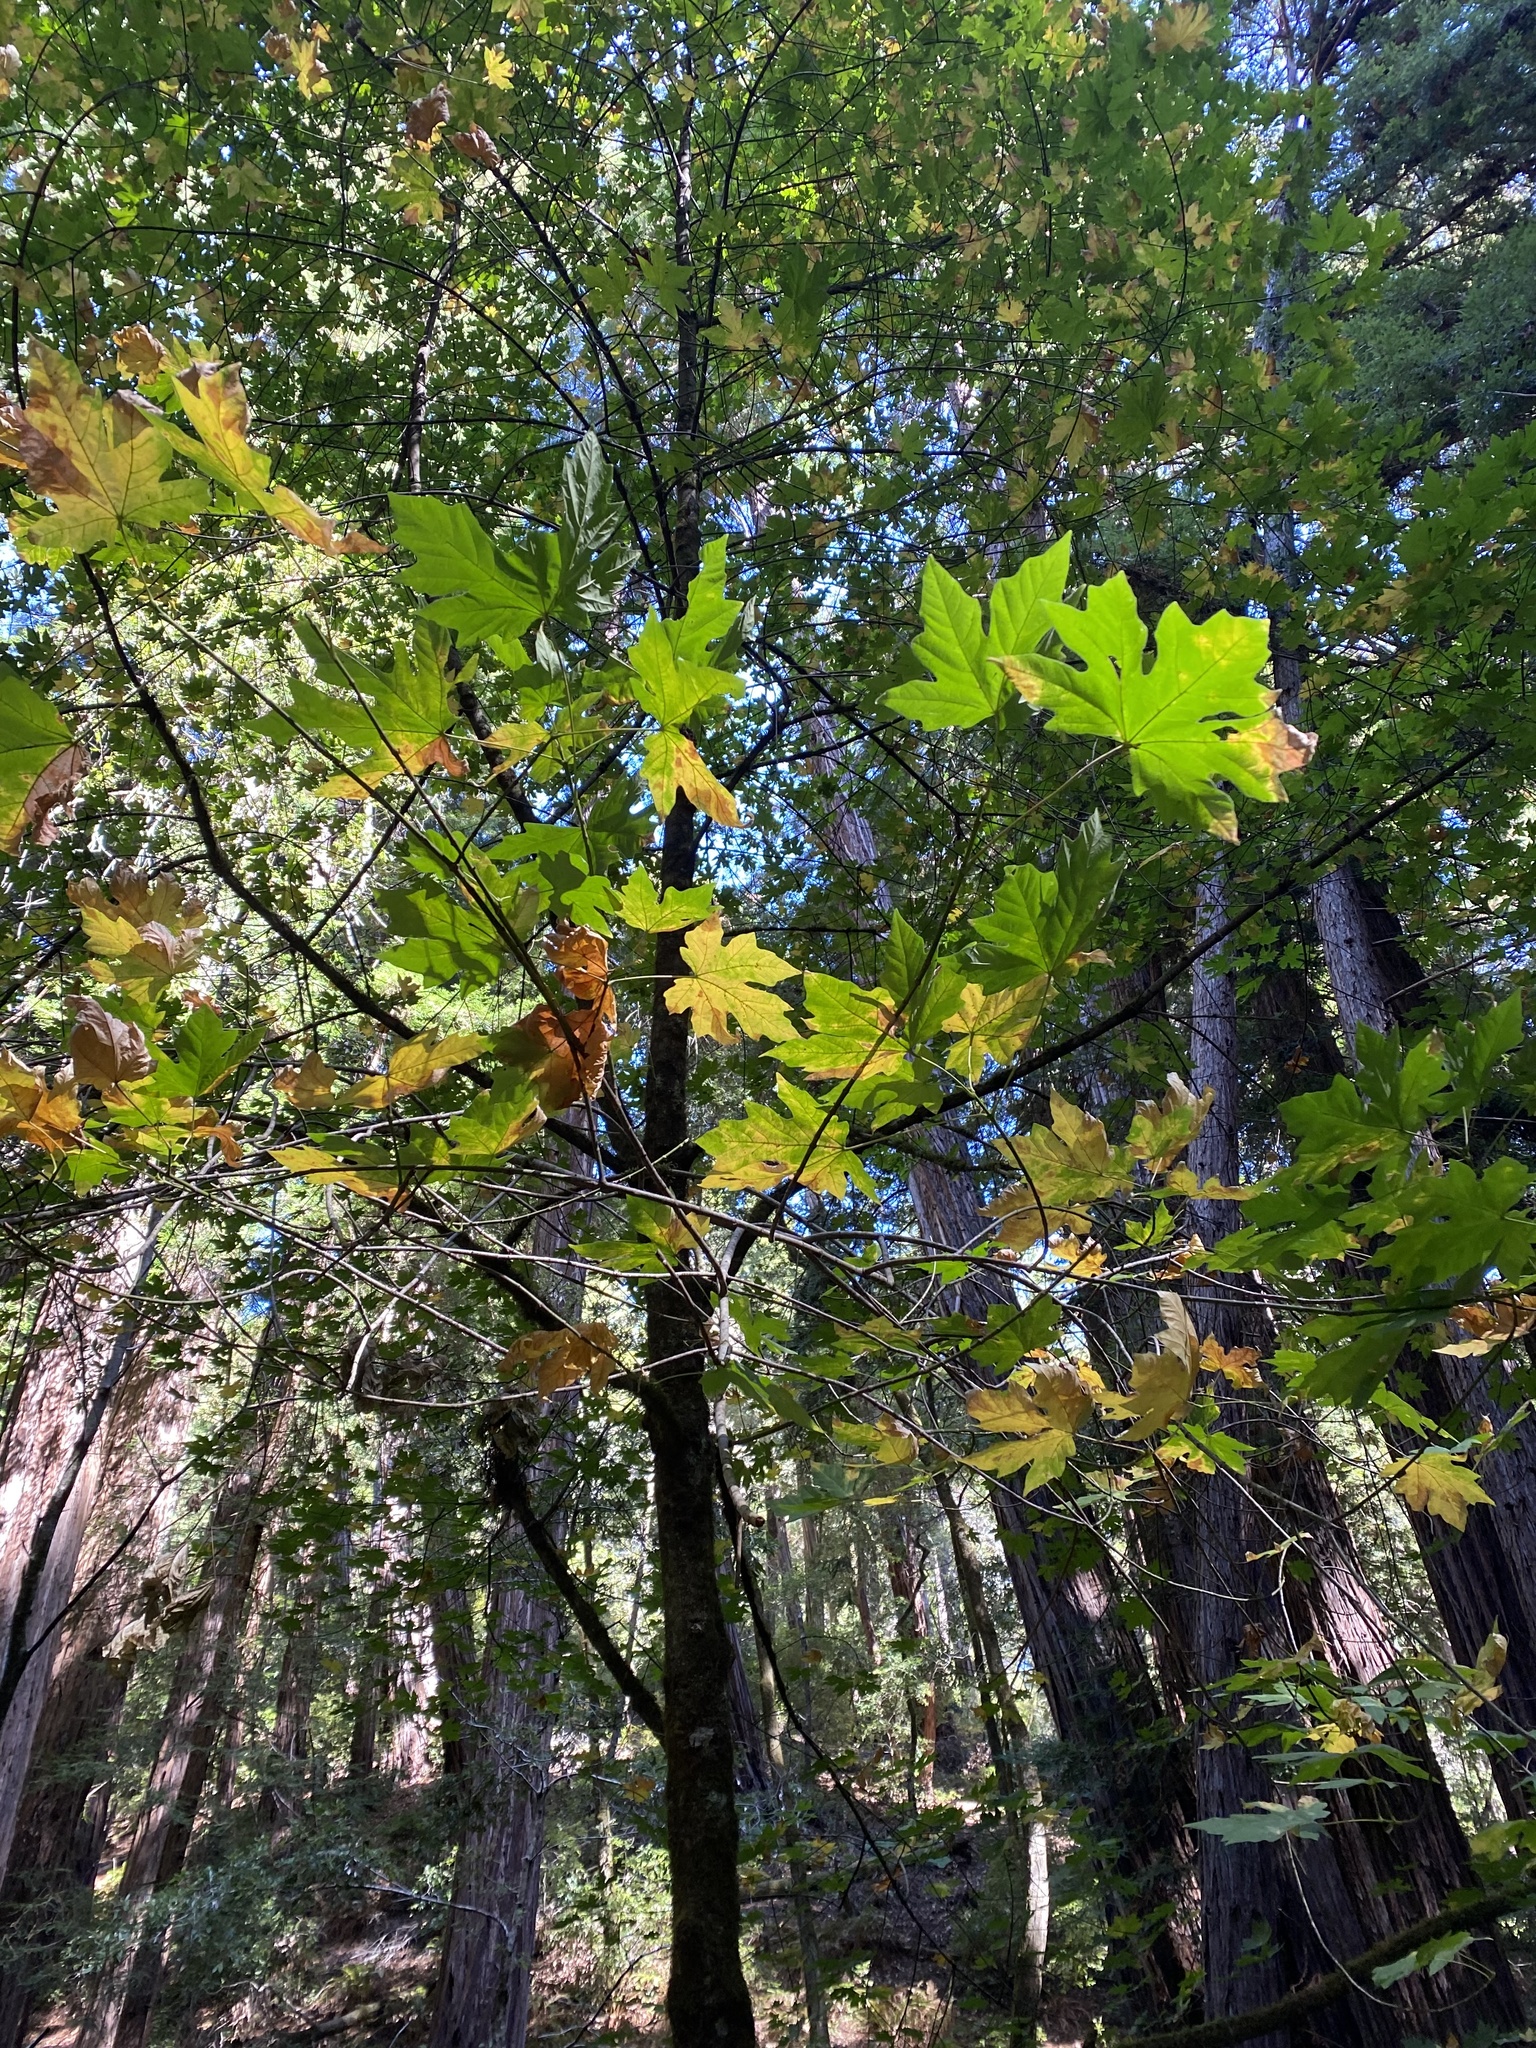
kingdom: Plantae
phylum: Tracheophyta
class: Magnoliopsida
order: Sapindales
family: Sapindaceae
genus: Acer
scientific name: Acer macrophyllum
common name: Oregon maple
